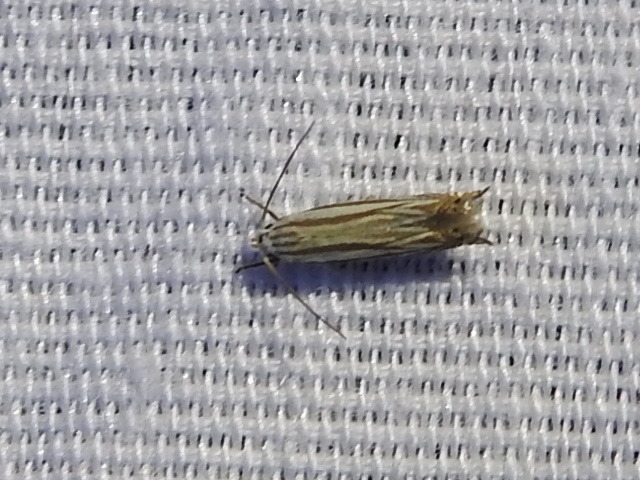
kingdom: Animalia
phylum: Arthropoda
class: Insecta
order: Lepidoptera
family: Gelechiidae
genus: Polyhymno
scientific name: Polyhymno luteostrigella
